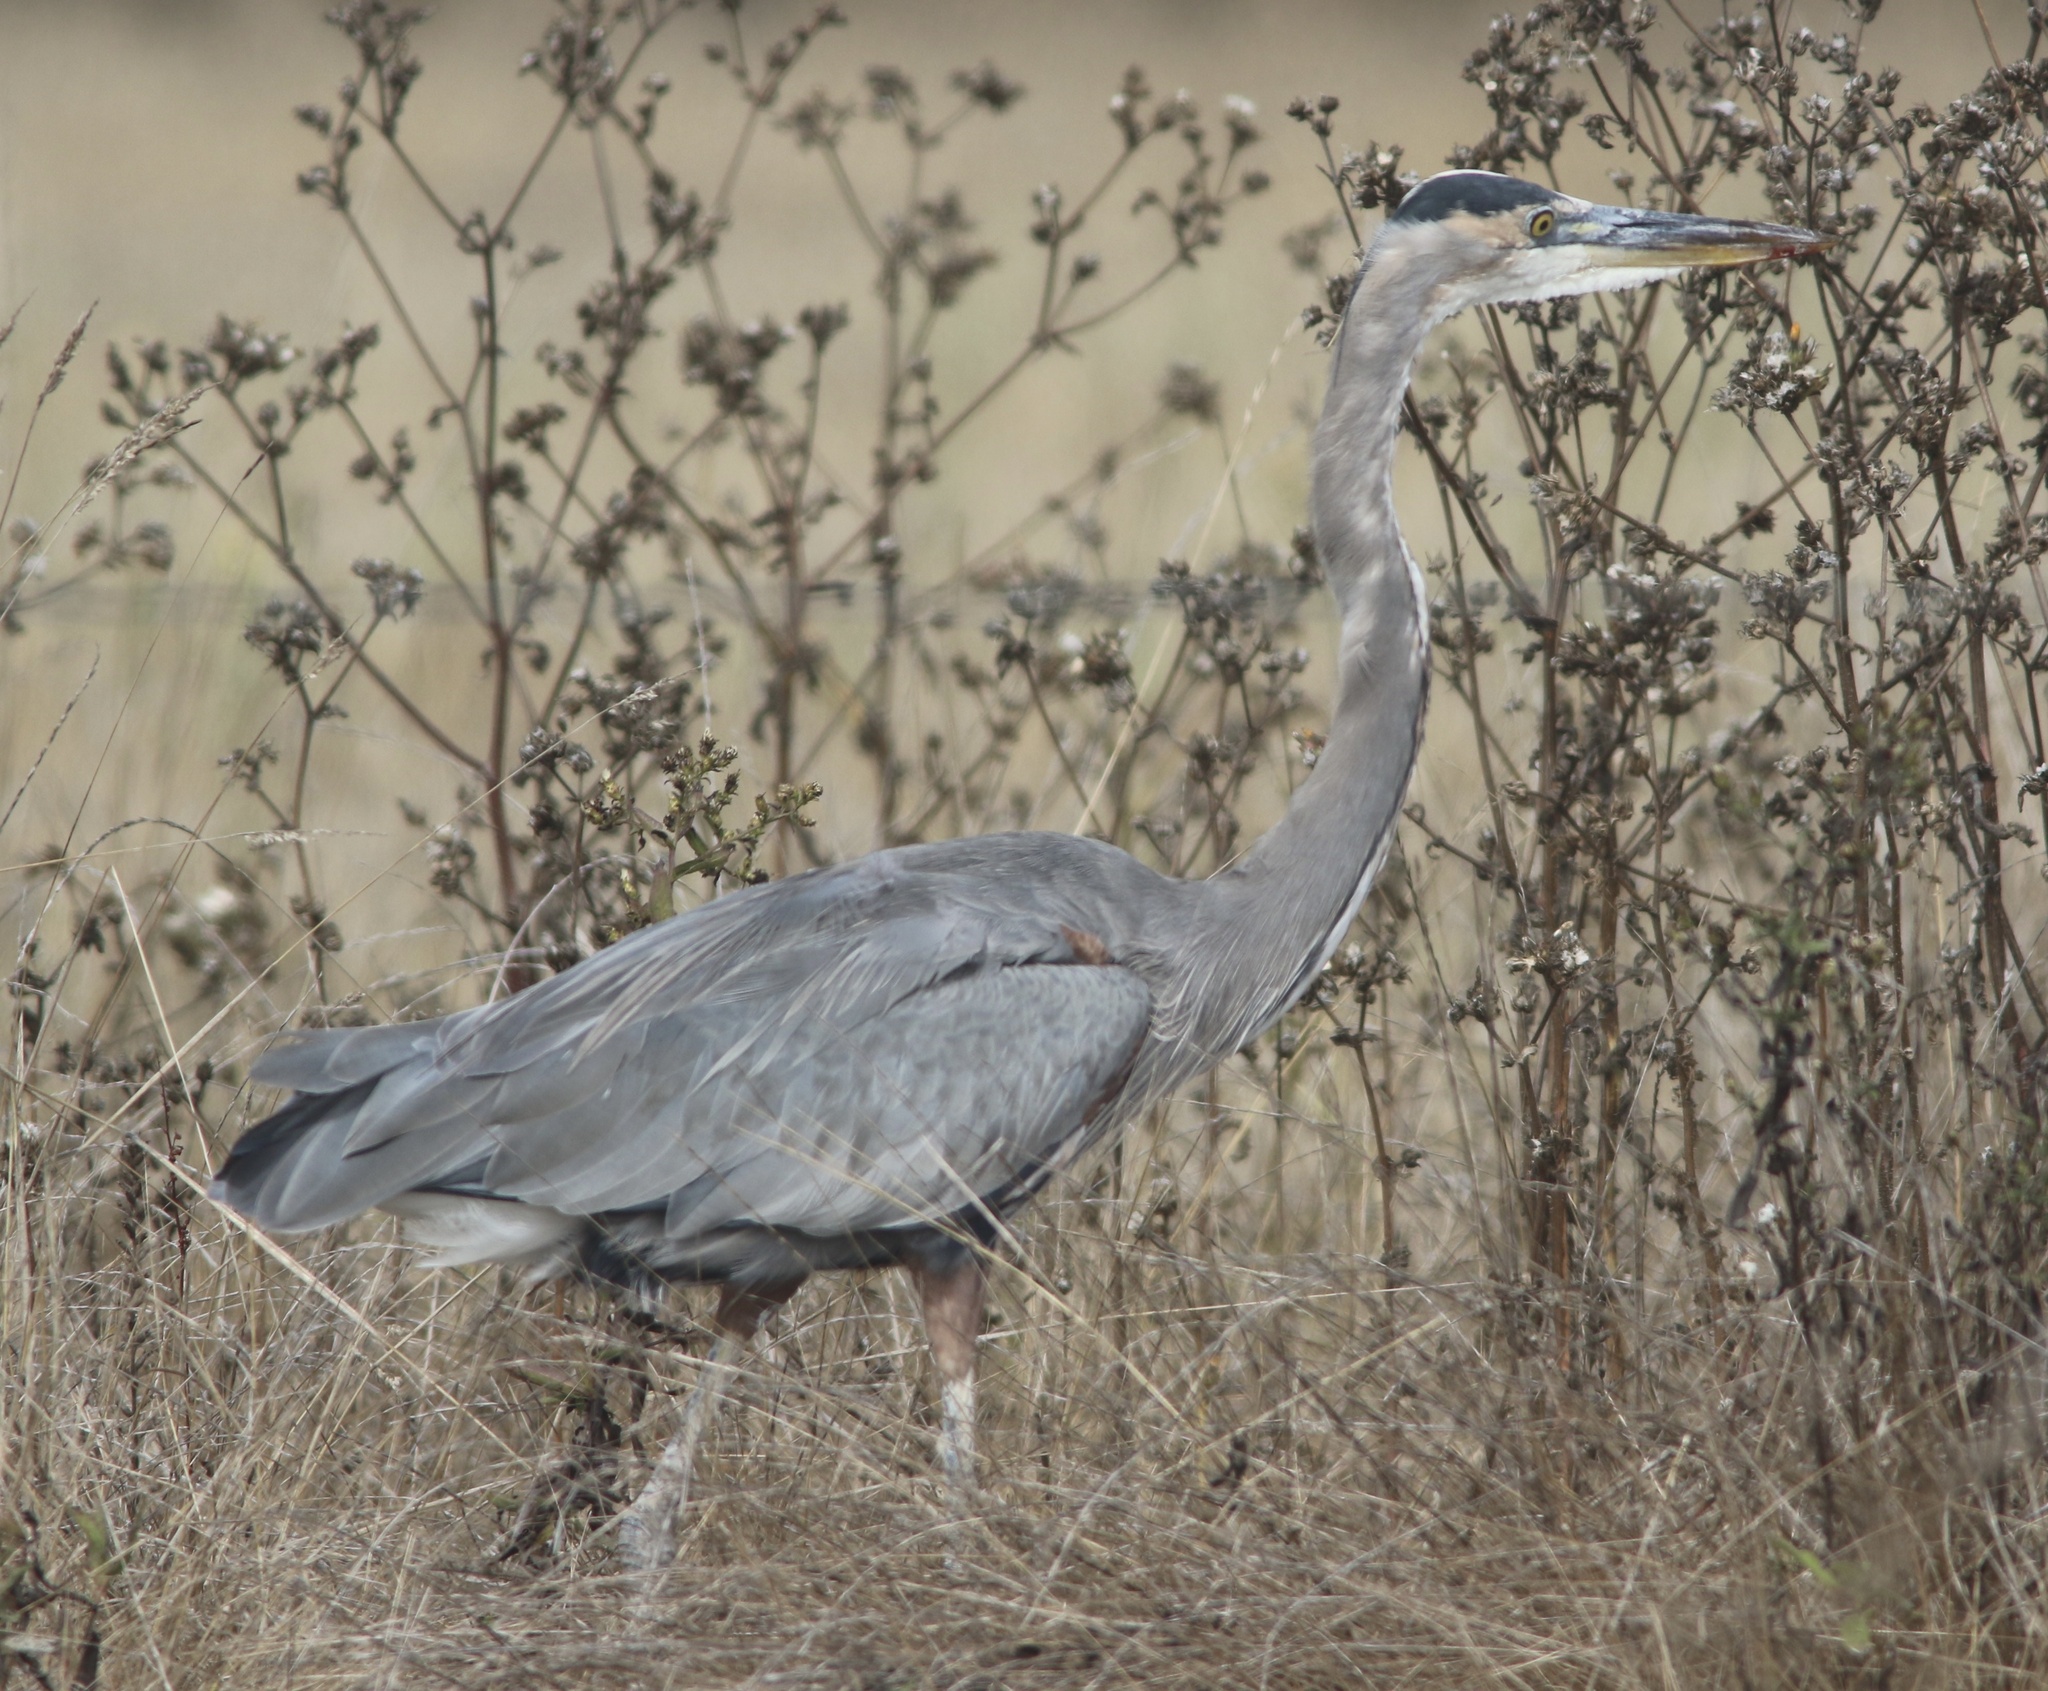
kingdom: Animalia
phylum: Chordata
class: Aves
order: Pelecaniformes
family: Ardeidae
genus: Ardea
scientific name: Ardea herodias
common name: Great blue heron
